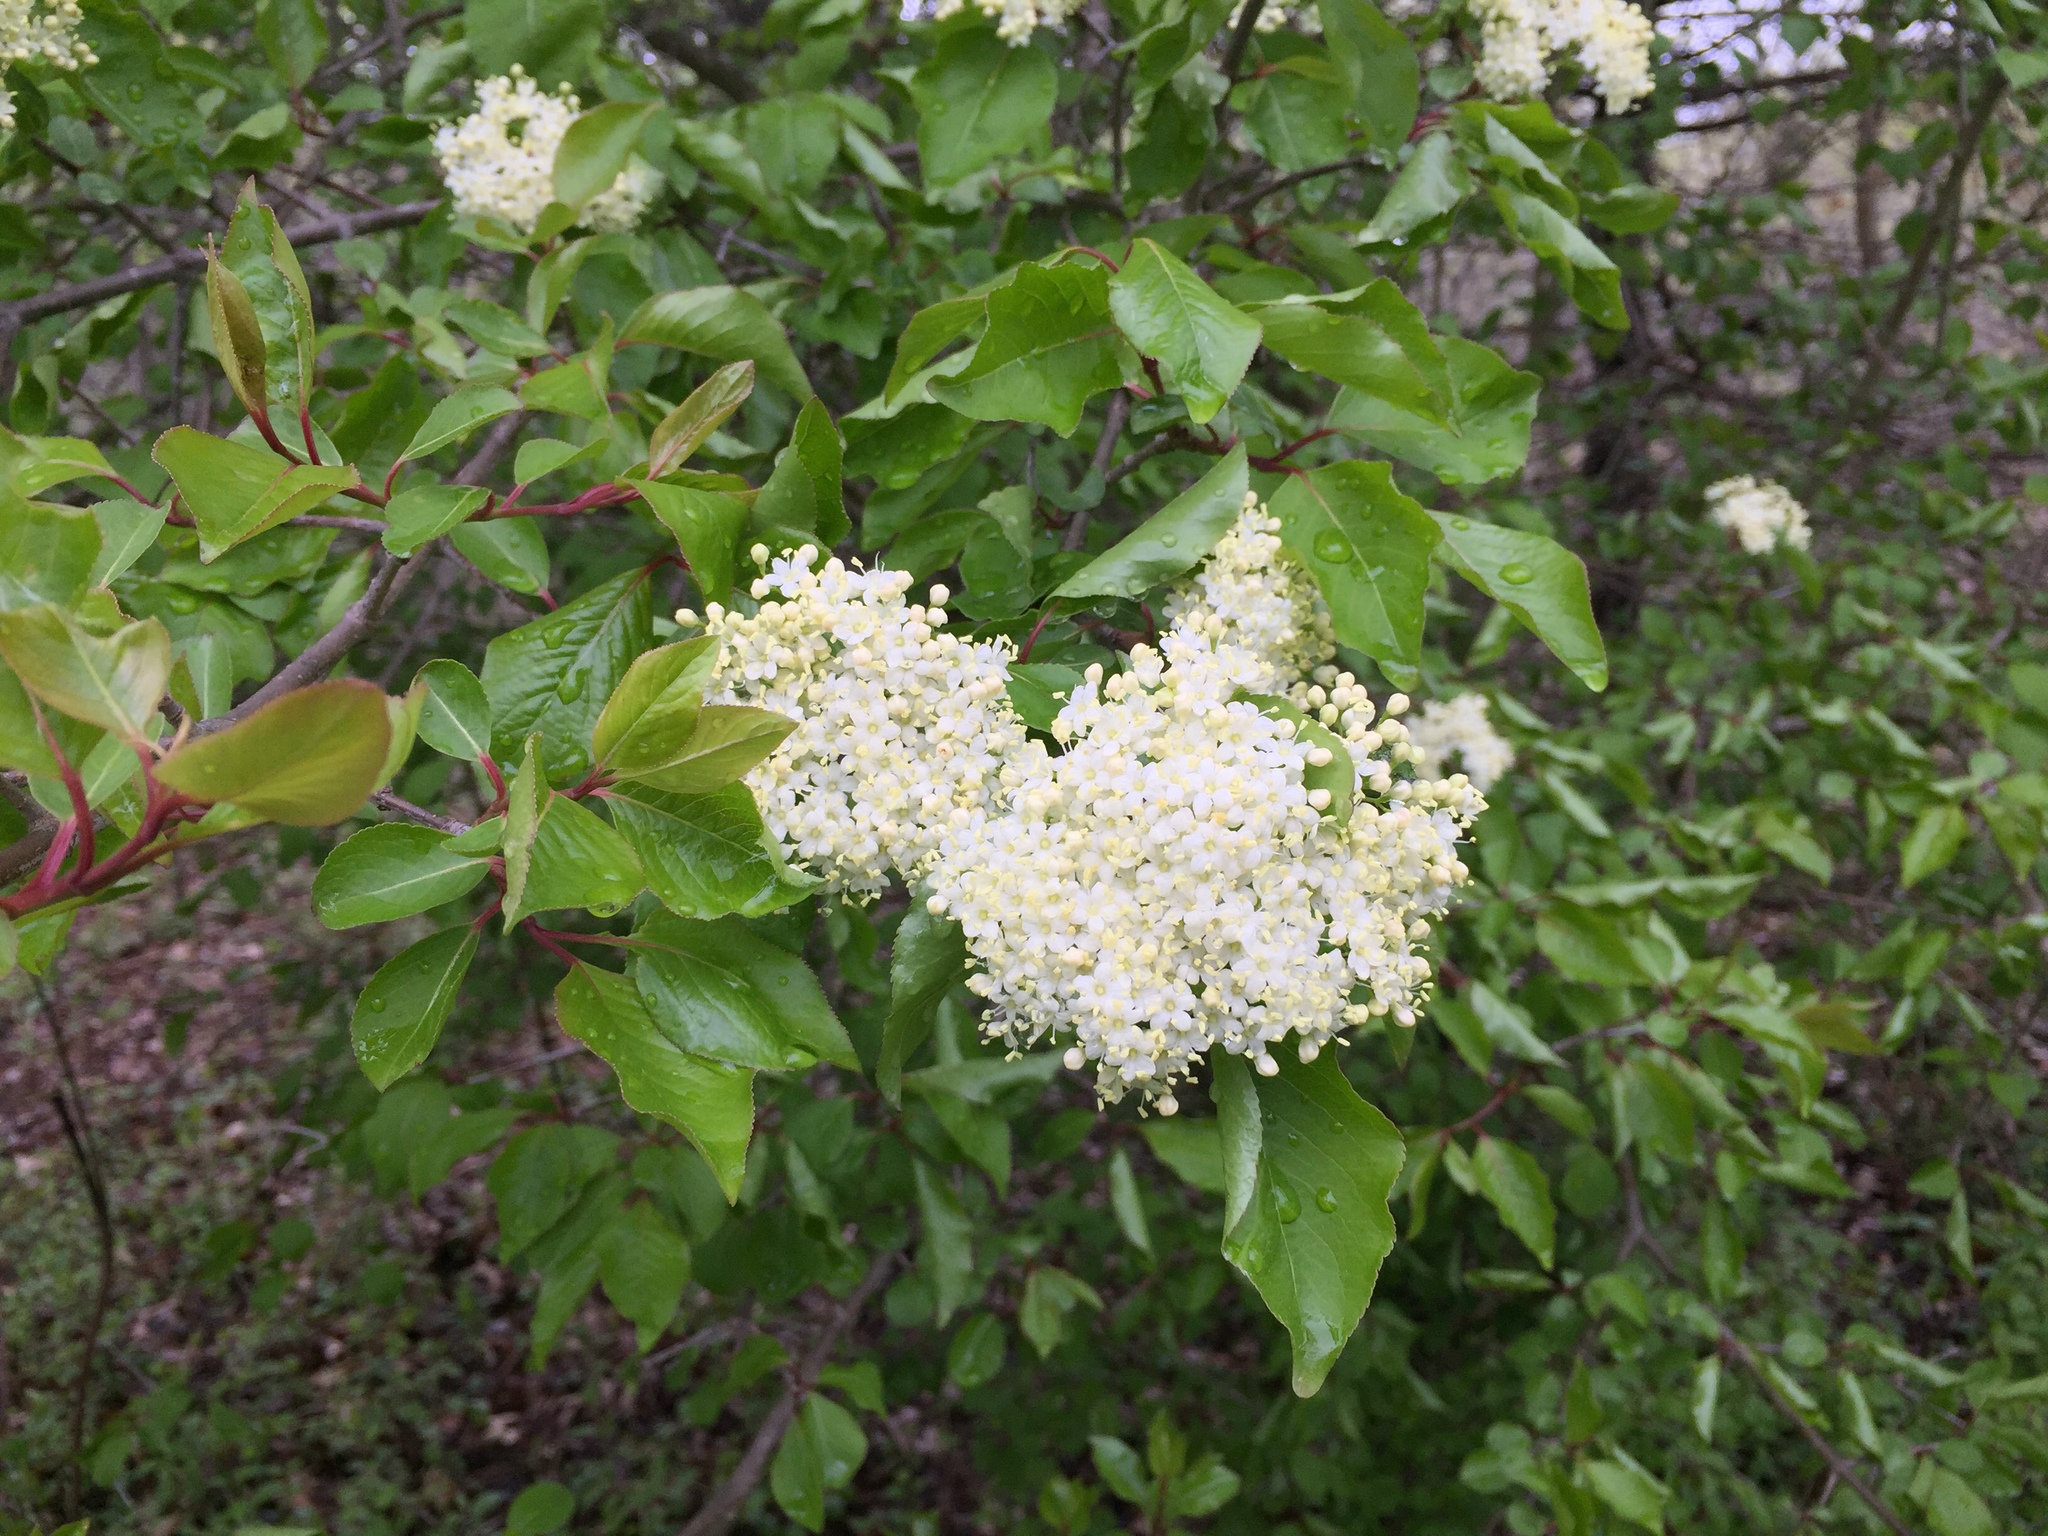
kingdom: Plantae
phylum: Tracheophyta
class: Magnoliopsida
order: Dipsacales
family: Viburnaceae
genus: Viburnum
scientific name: Viburnum prunifolium
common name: Black haw
